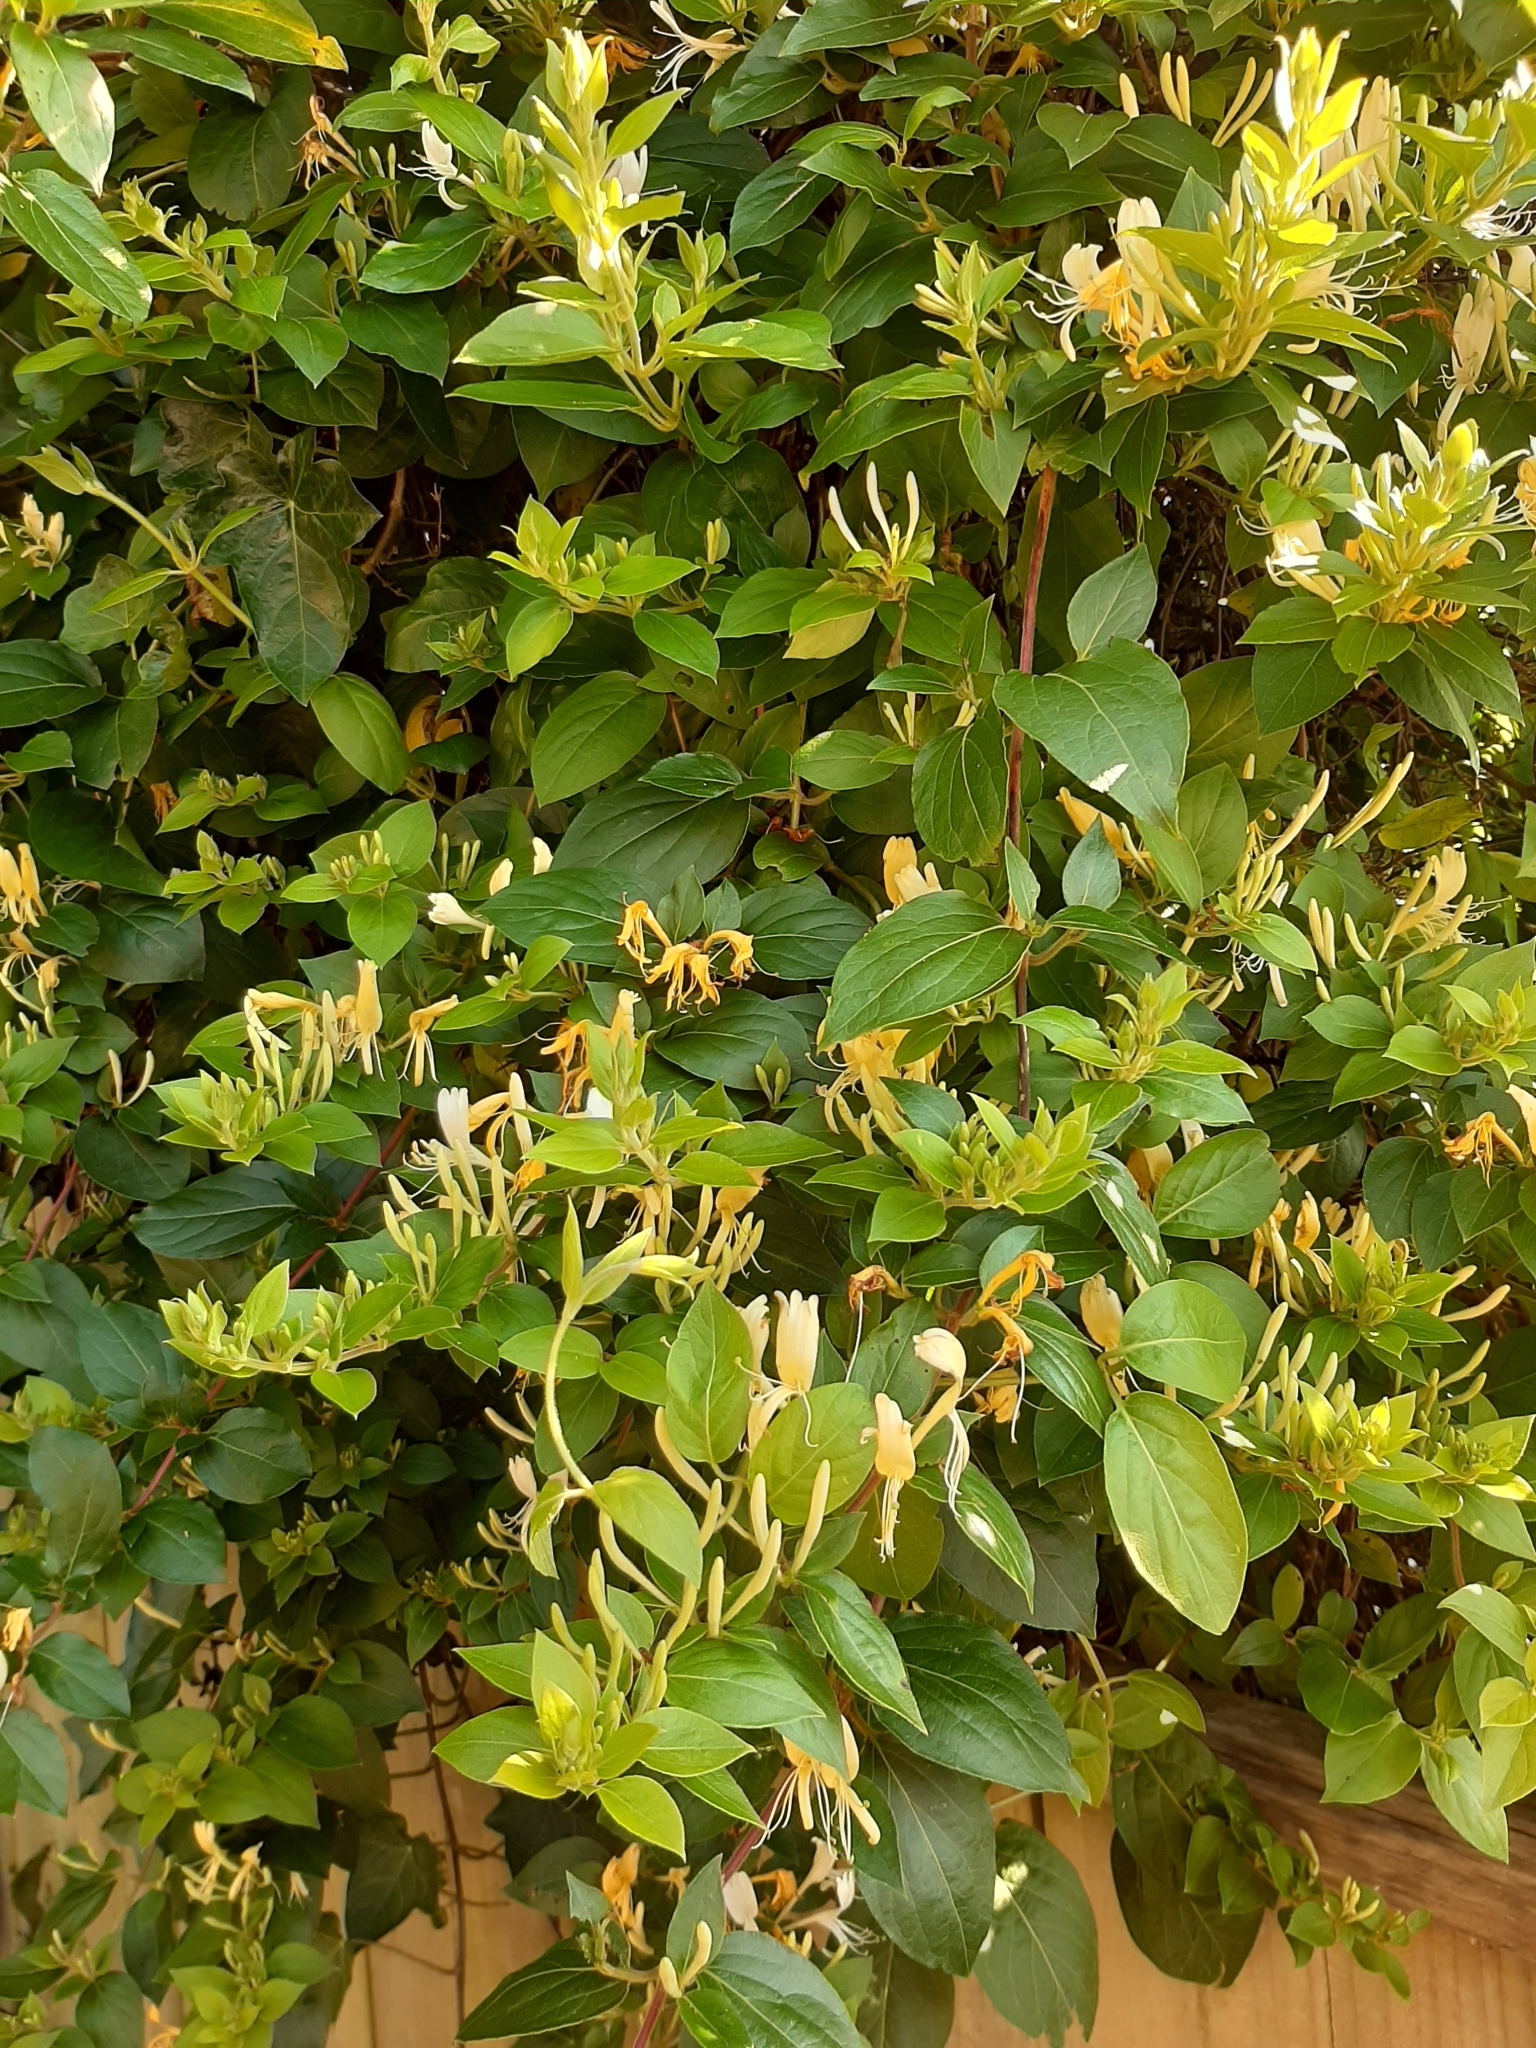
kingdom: Plantae
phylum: Tracheophyta
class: Magnoliopsida
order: Dipsacales
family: Caprifoliaceae
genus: Lonicera
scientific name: Lonicera japonica
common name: Japanese honeysuckle
